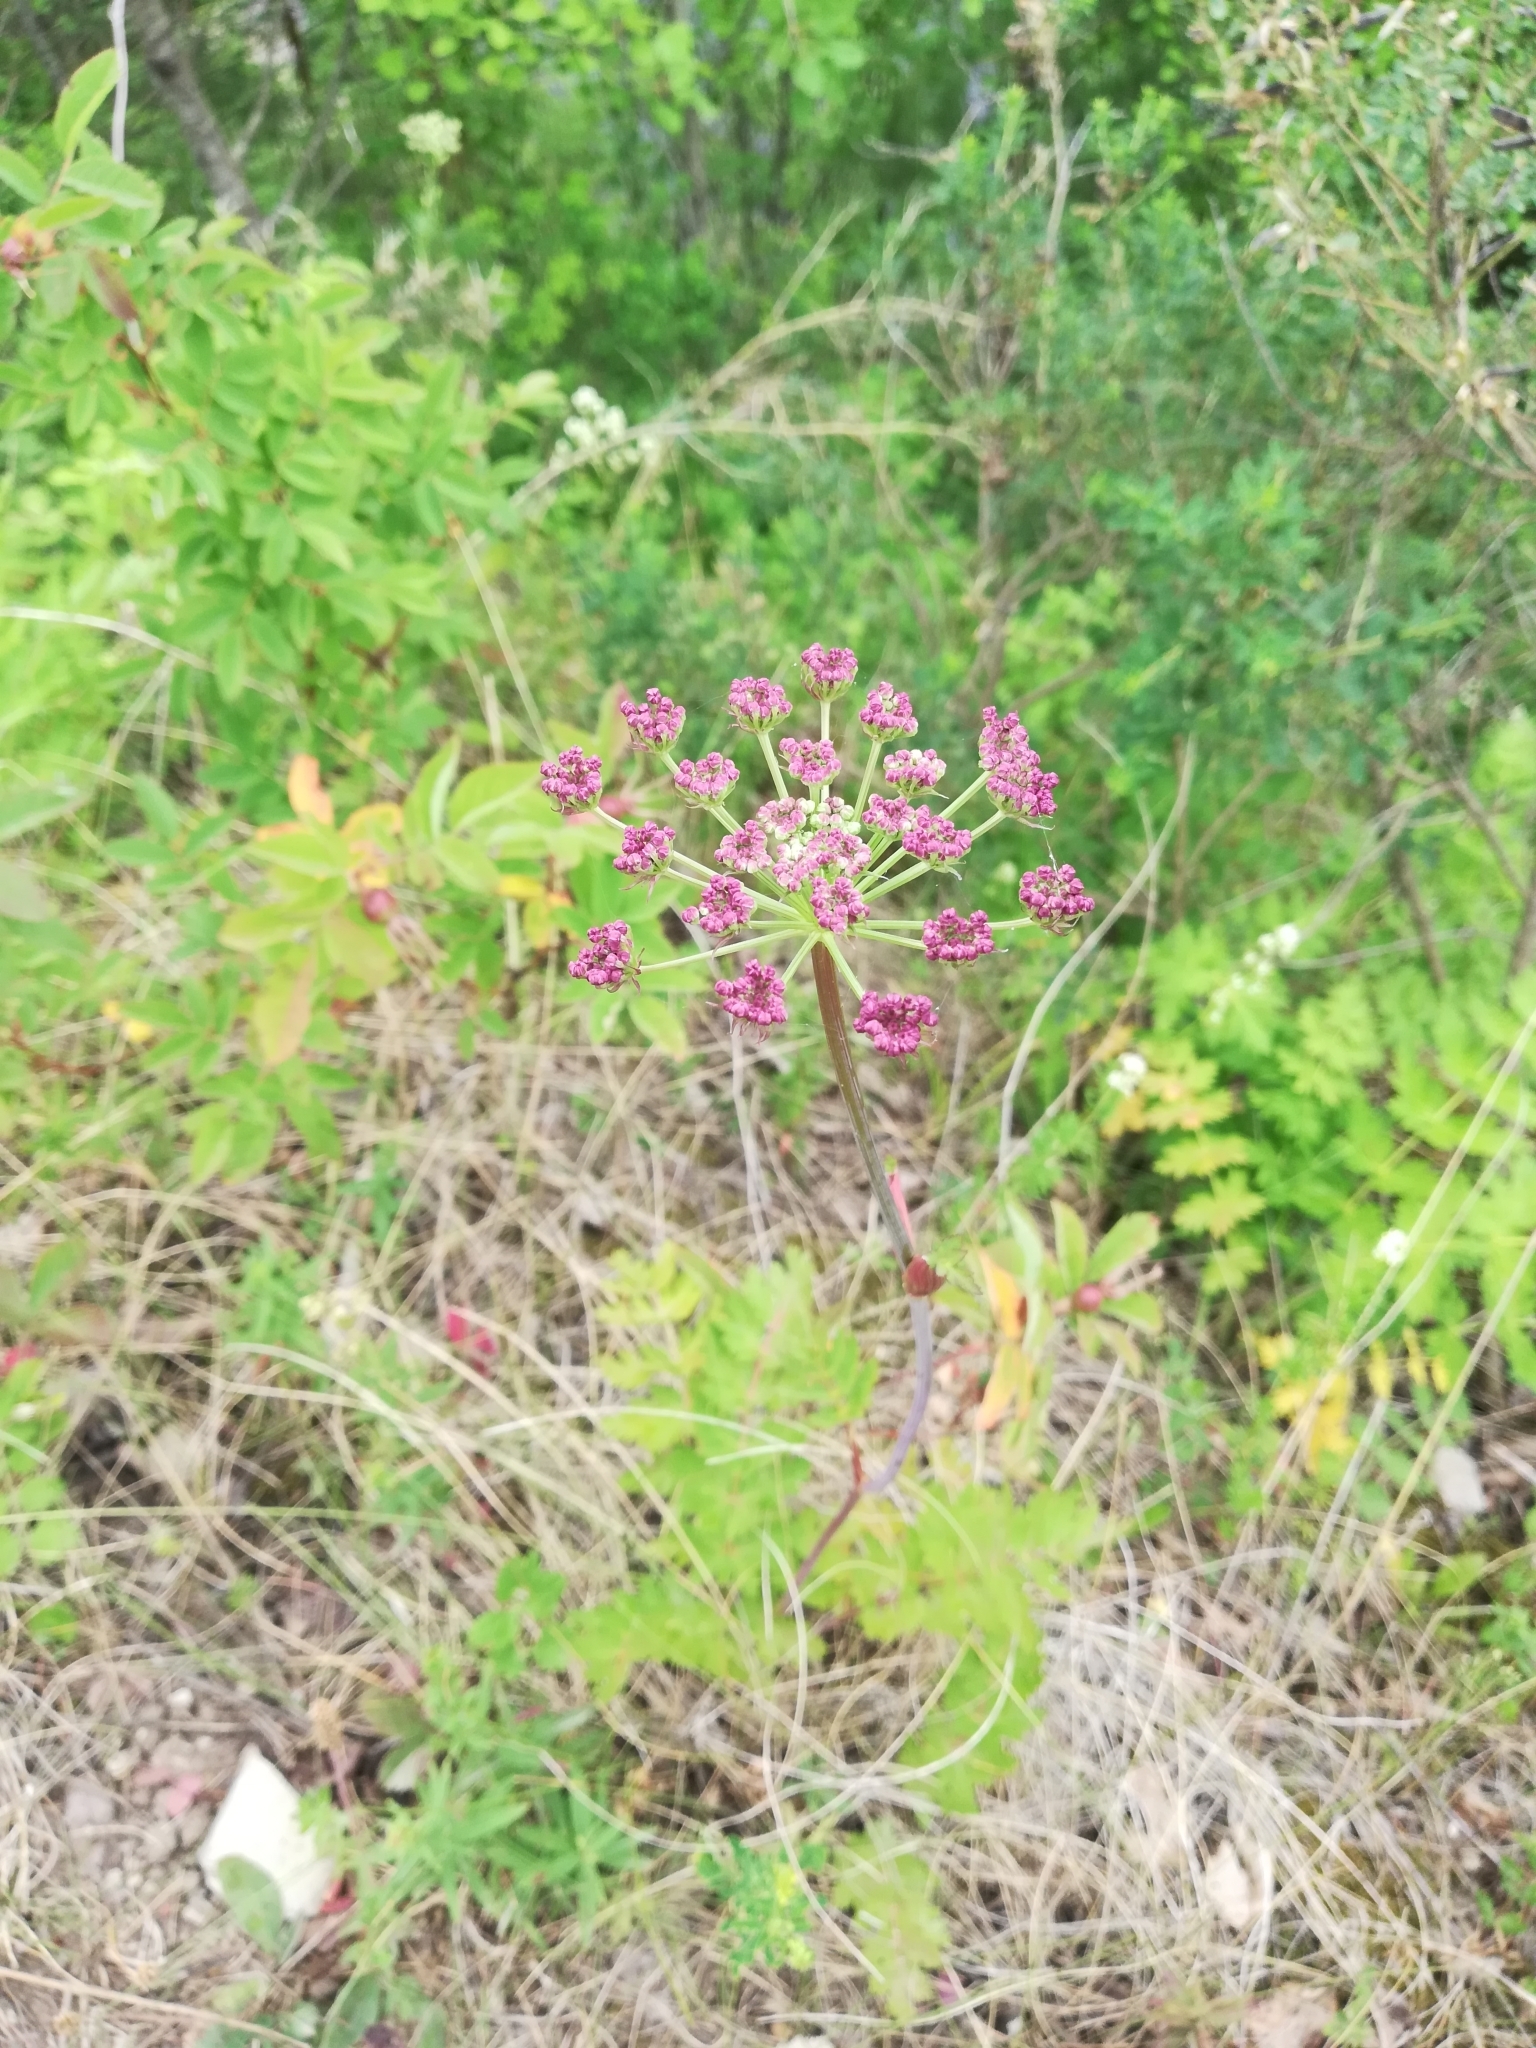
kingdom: Plantae
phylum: Tracheophyta
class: Magnoliopsida
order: Apiales
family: Apiaceae
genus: Seseli
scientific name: Seseli krylovii
